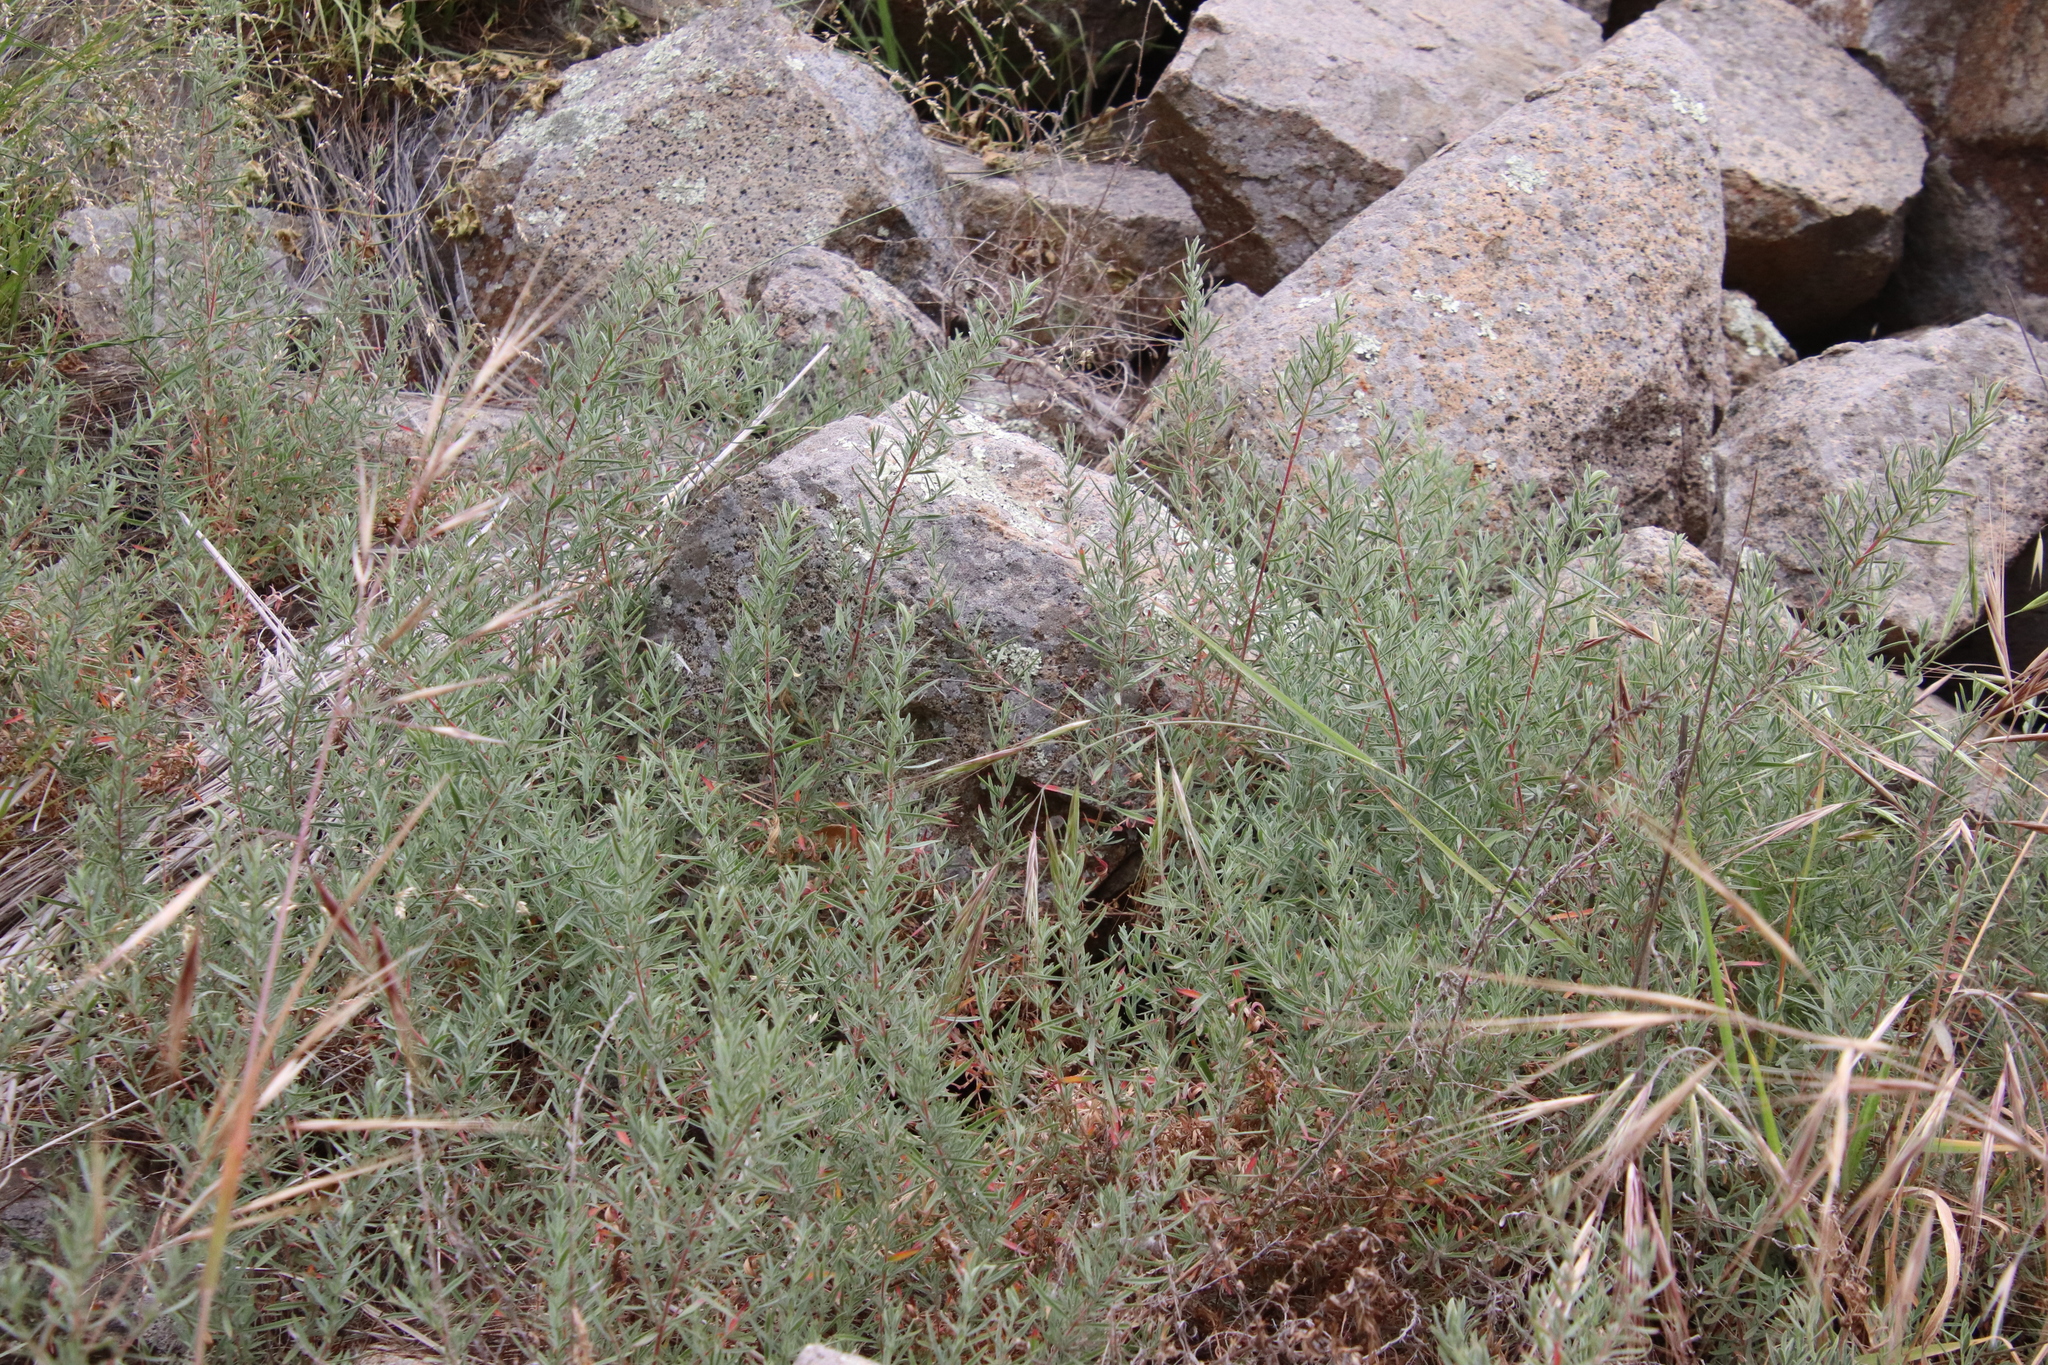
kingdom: Plantae
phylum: Tracheophyta
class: Magnoliopsida
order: Myrtales
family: Onagraceae
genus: Epilobium
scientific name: Epilobium canum
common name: California-fuchsia
